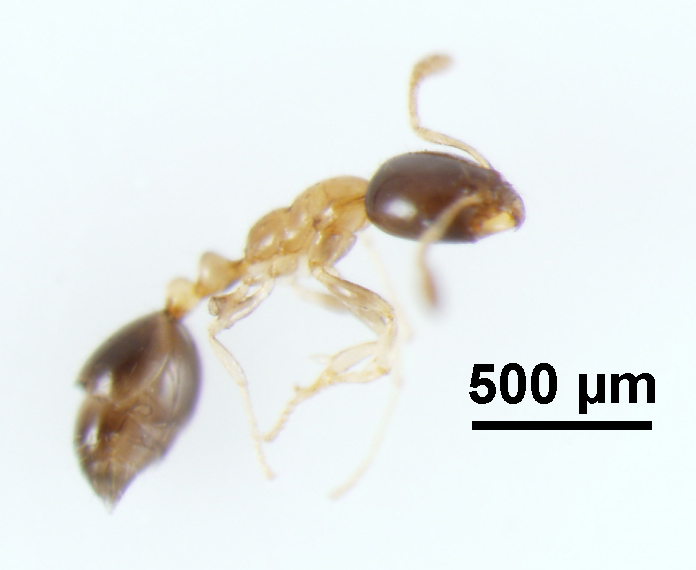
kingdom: Animalia
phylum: Arthropoda
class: Insecta
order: Hymenoptera
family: Formicidae
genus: Monomorium
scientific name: Monomorium floricola
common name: Bicolored trailing ant
